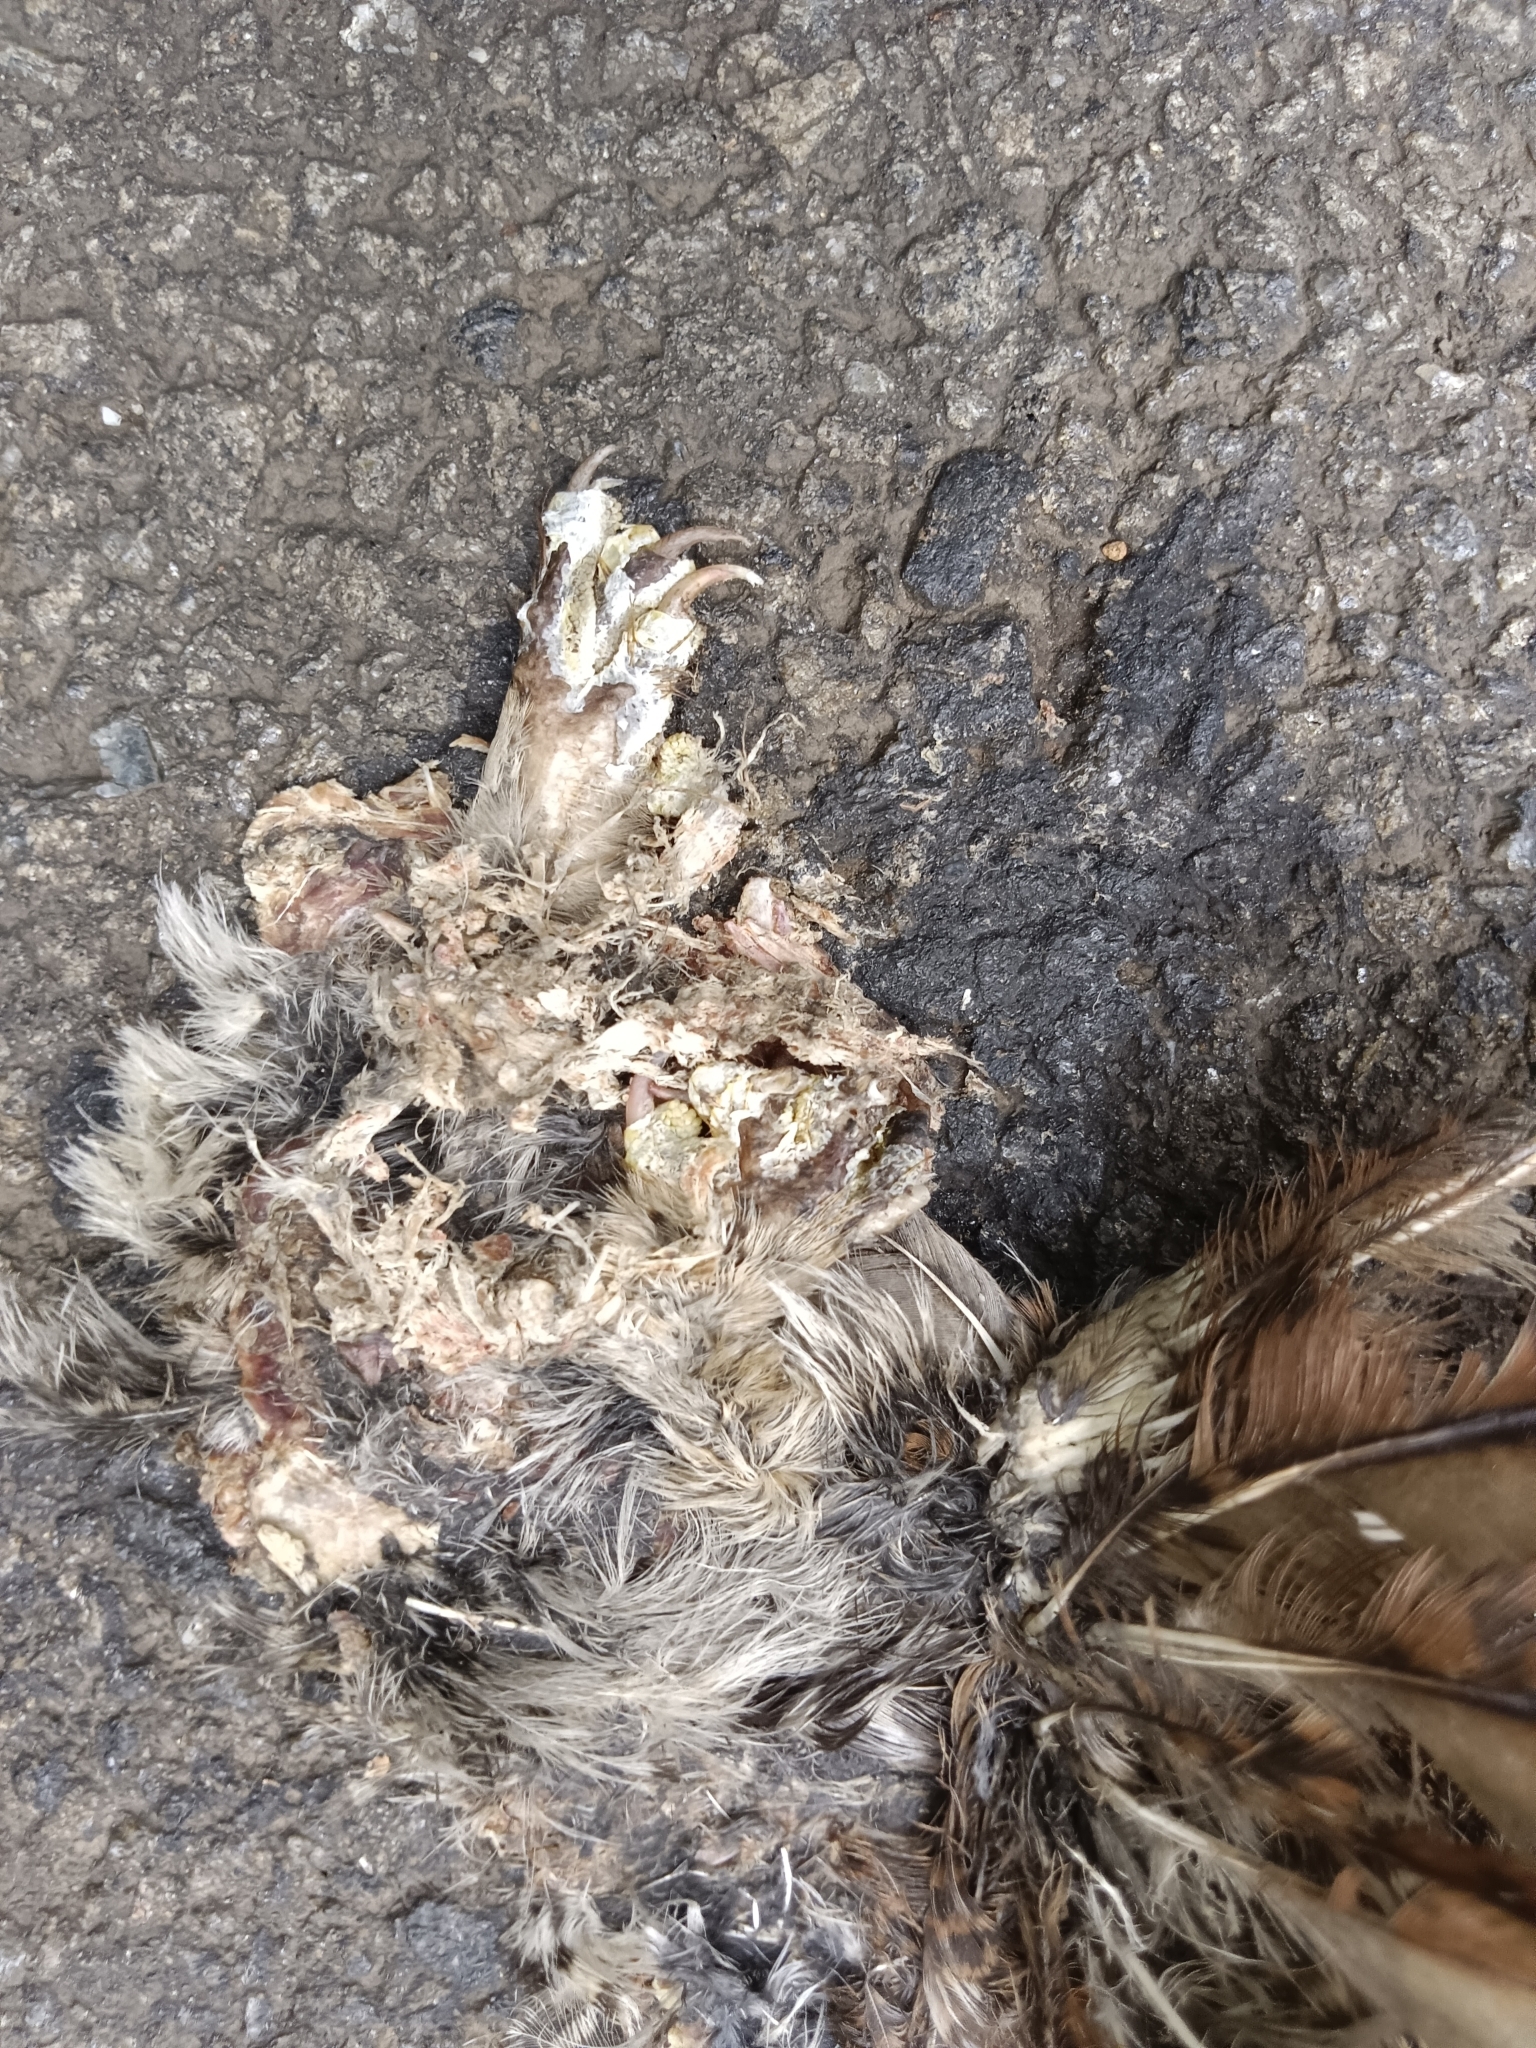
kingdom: Animalia
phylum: Chordata
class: Aves
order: Strigiformes
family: Strigidae
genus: Glaucidium
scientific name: Glaucidium radiatum
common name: Jungle owlet
